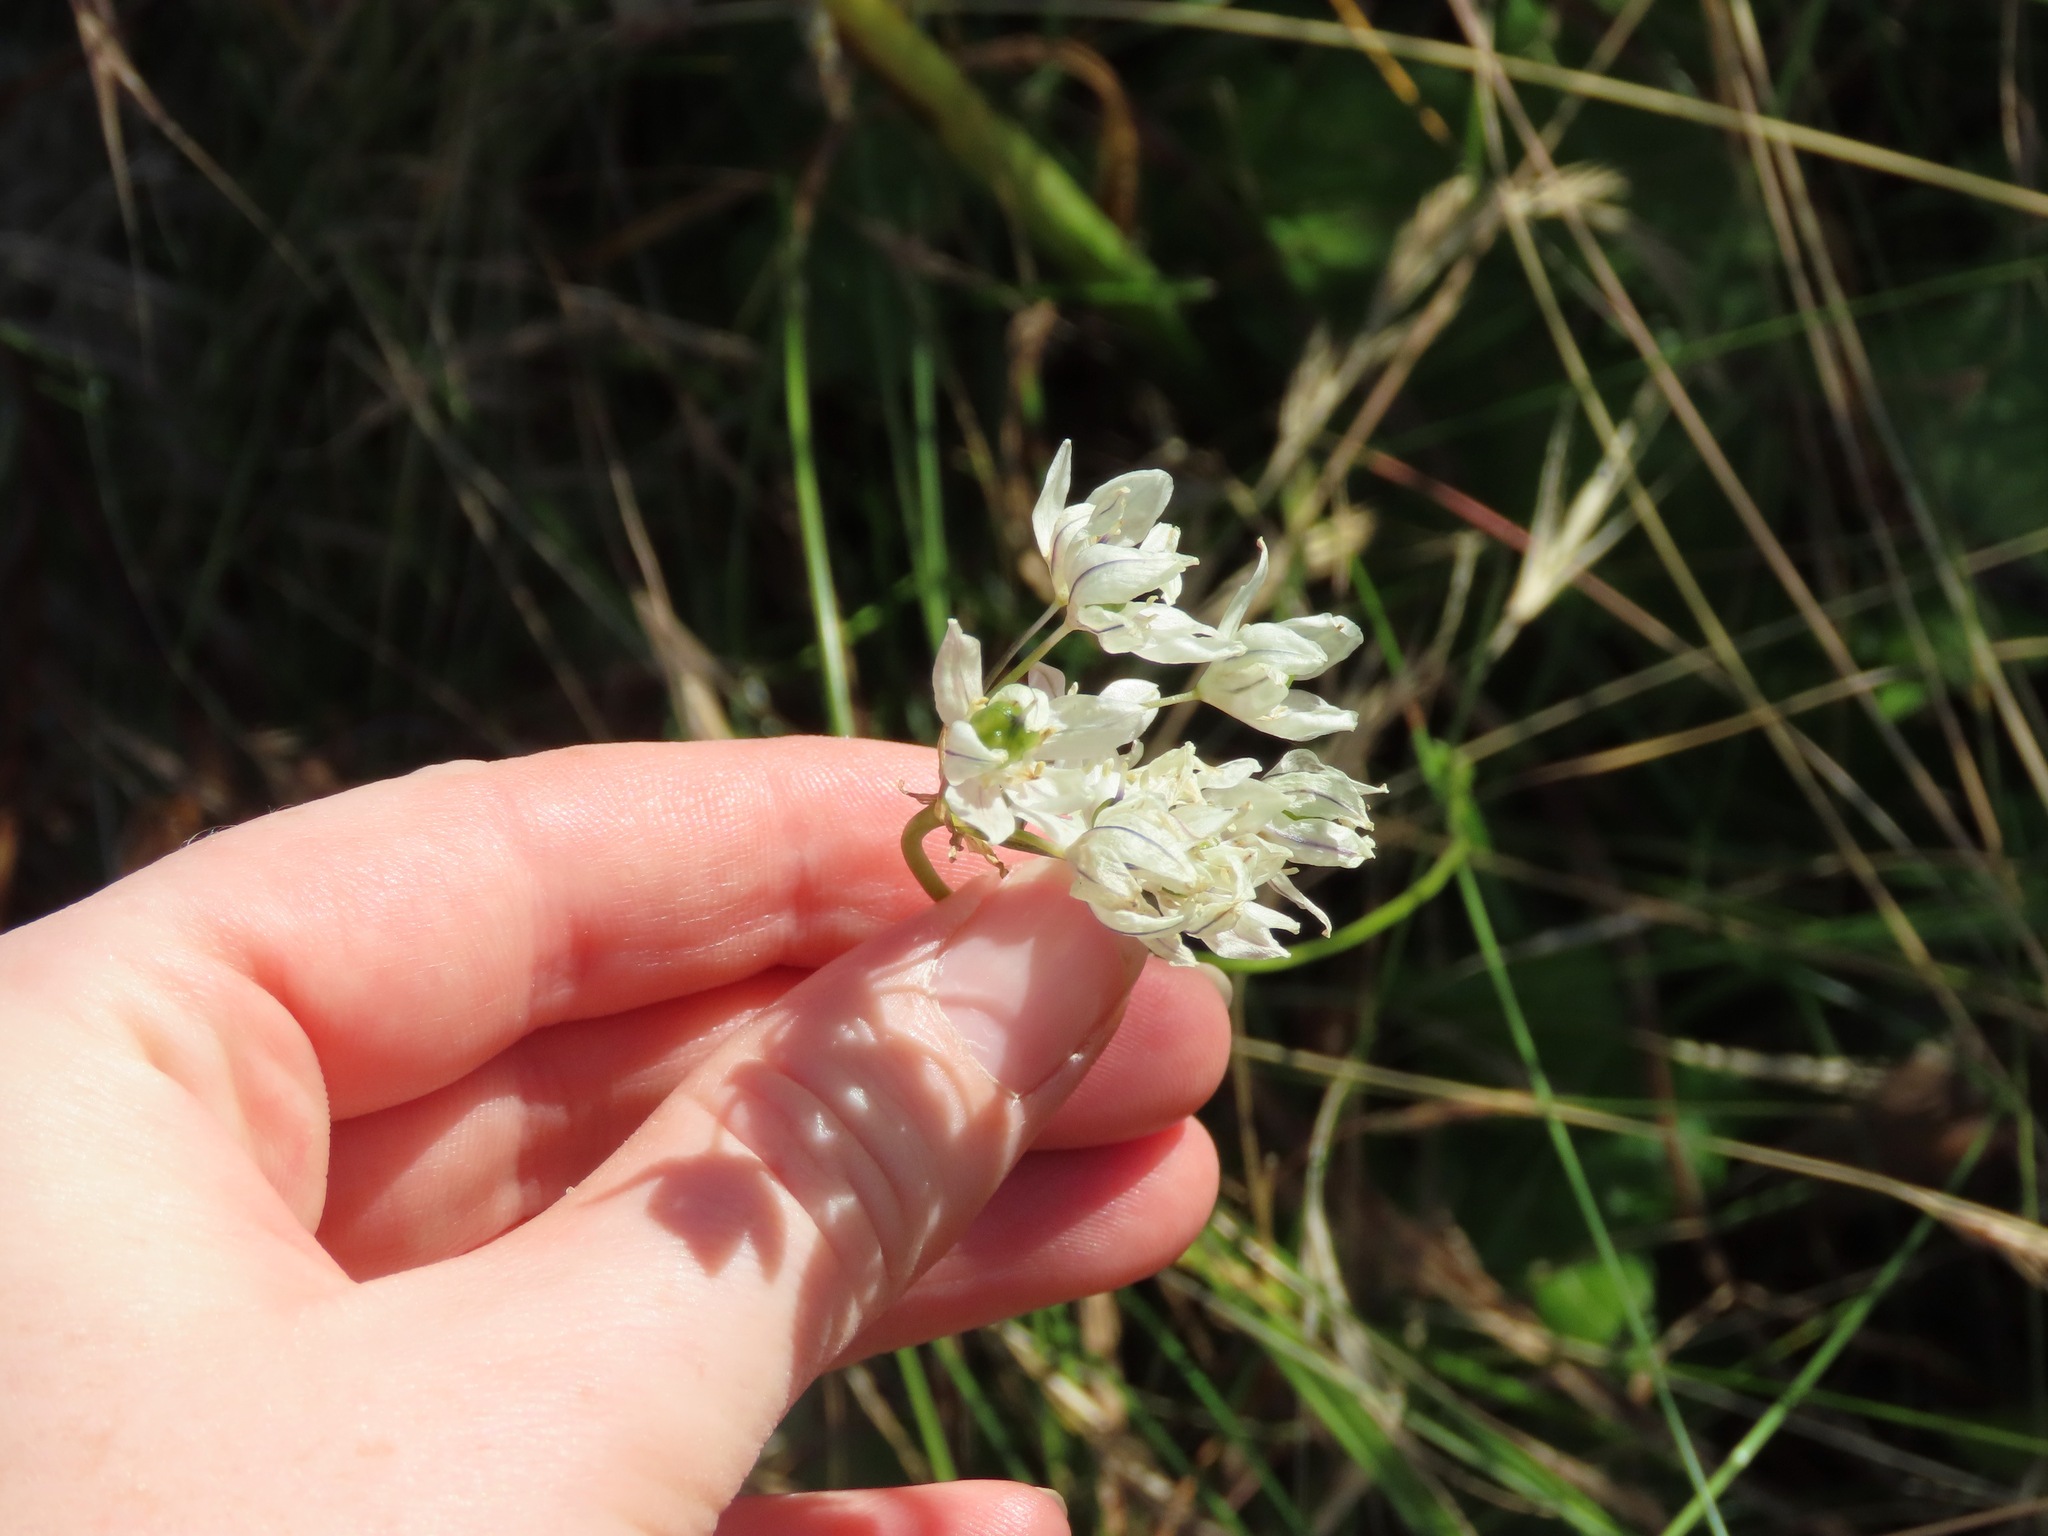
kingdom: Plantae
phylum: Tracheophyta
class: Liliopsida
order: Asparagales
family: Asparagaceae
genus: Triteleia
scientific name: Triteleia hyacinthina
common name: White brodiaea
